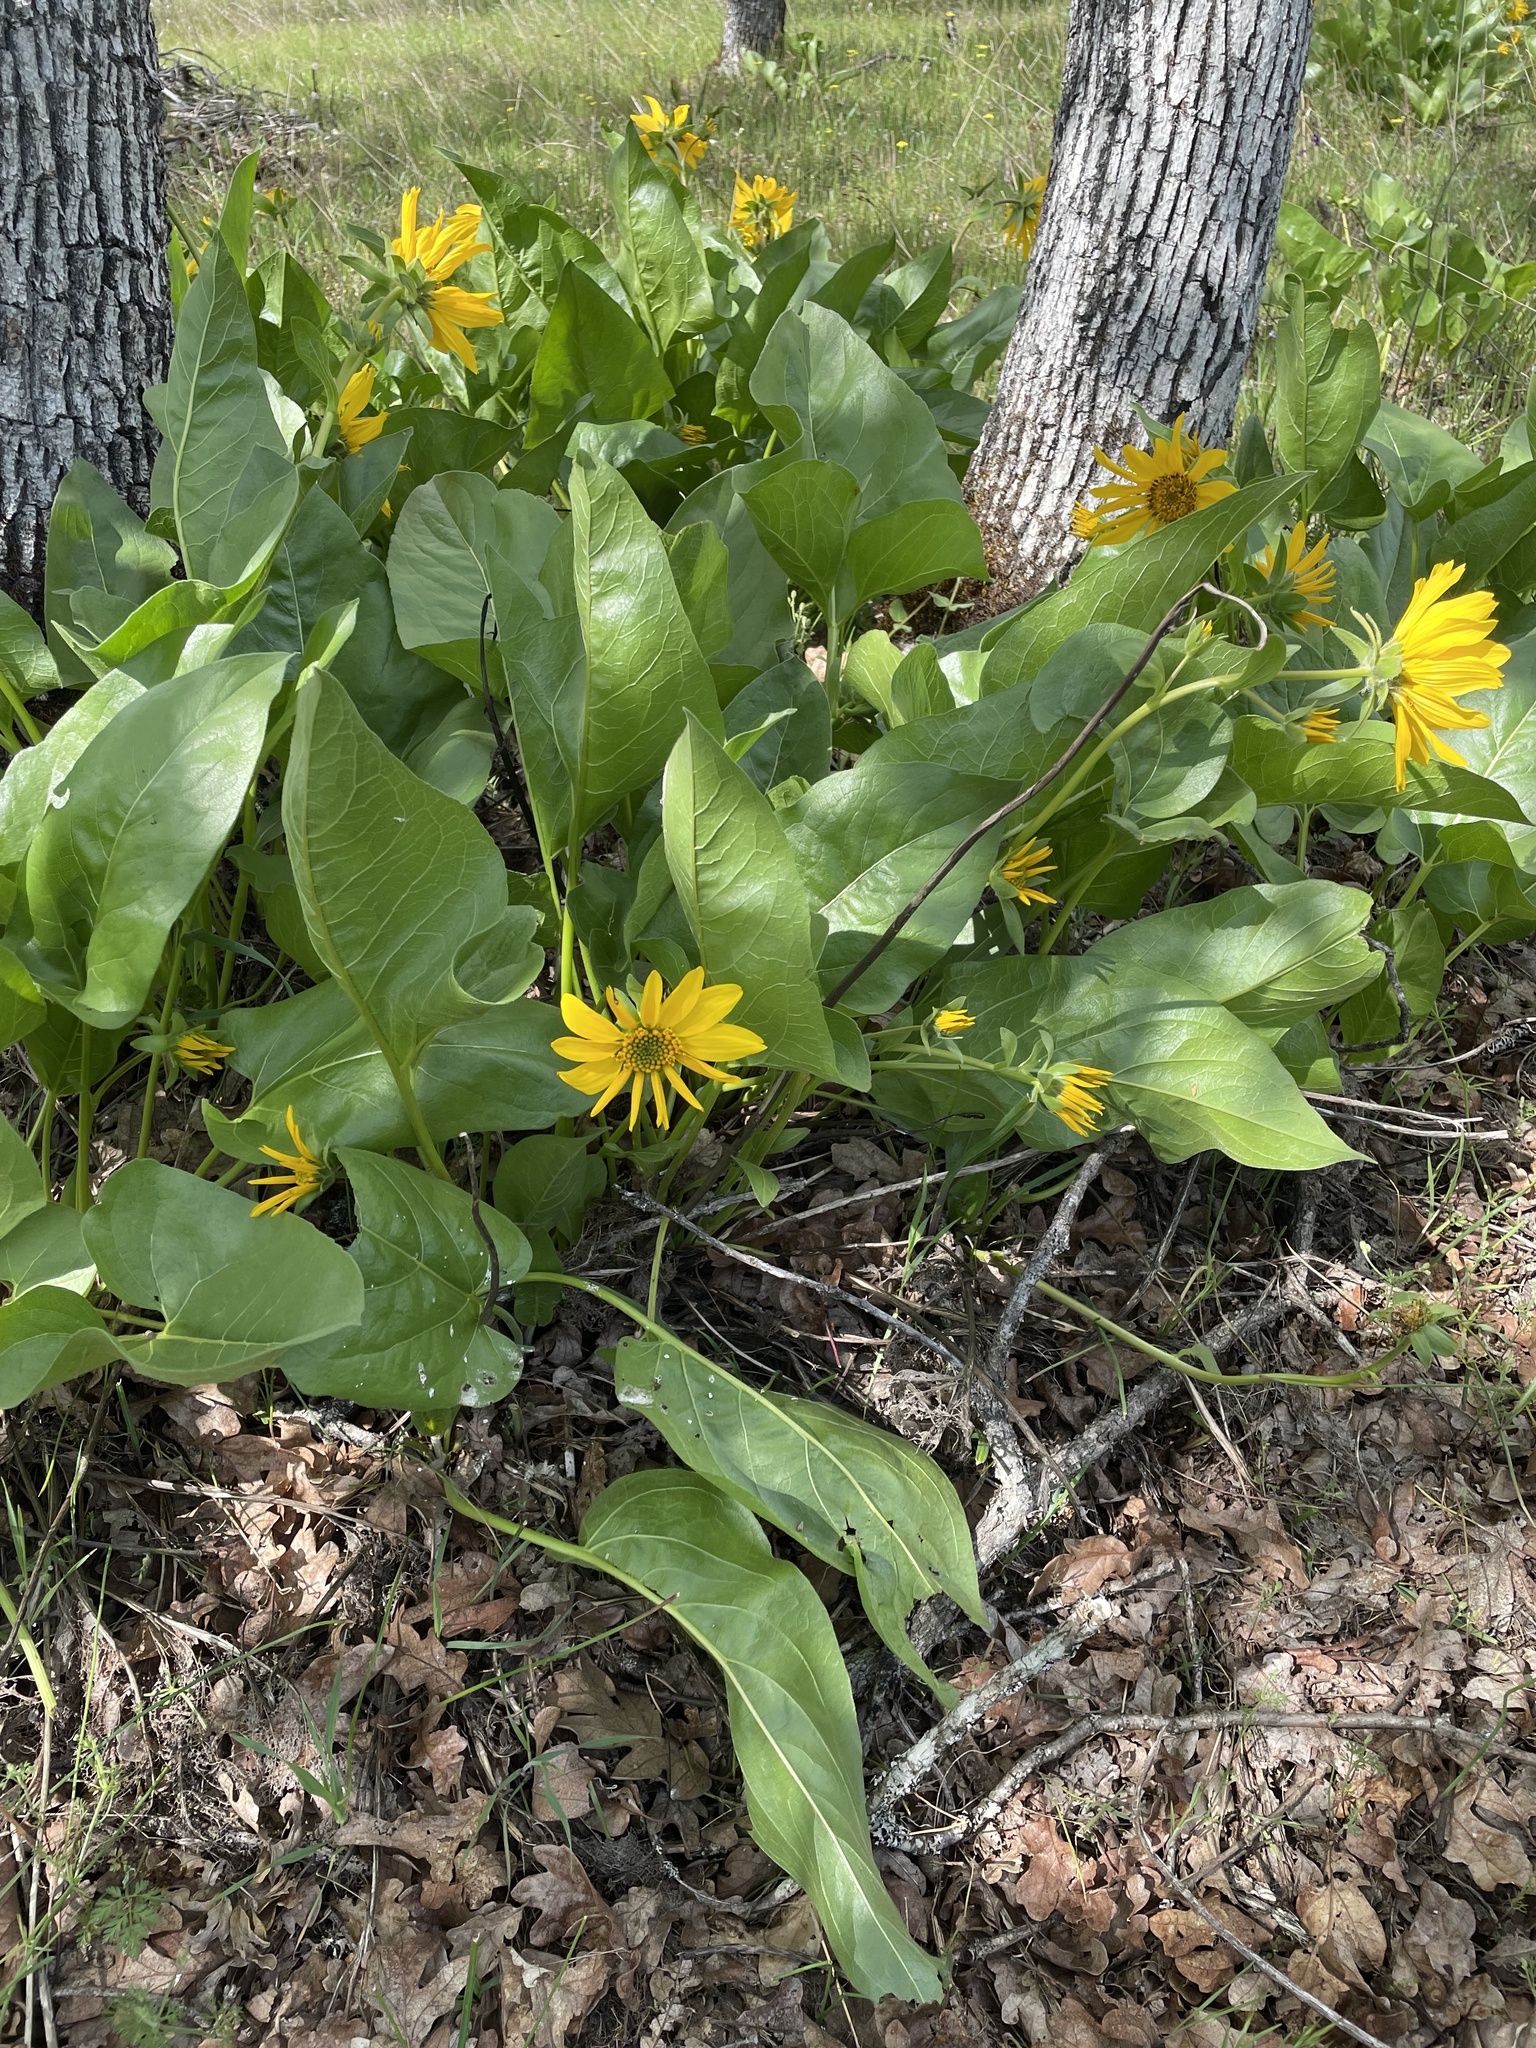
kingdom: Plantae
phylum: Tracheophyta
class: Magnoliopsida
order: Asterales
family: Asteraceae
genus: Balsamorhiza
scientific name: Balsamorhiza deltoidea
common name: Deltoid balsamroot
